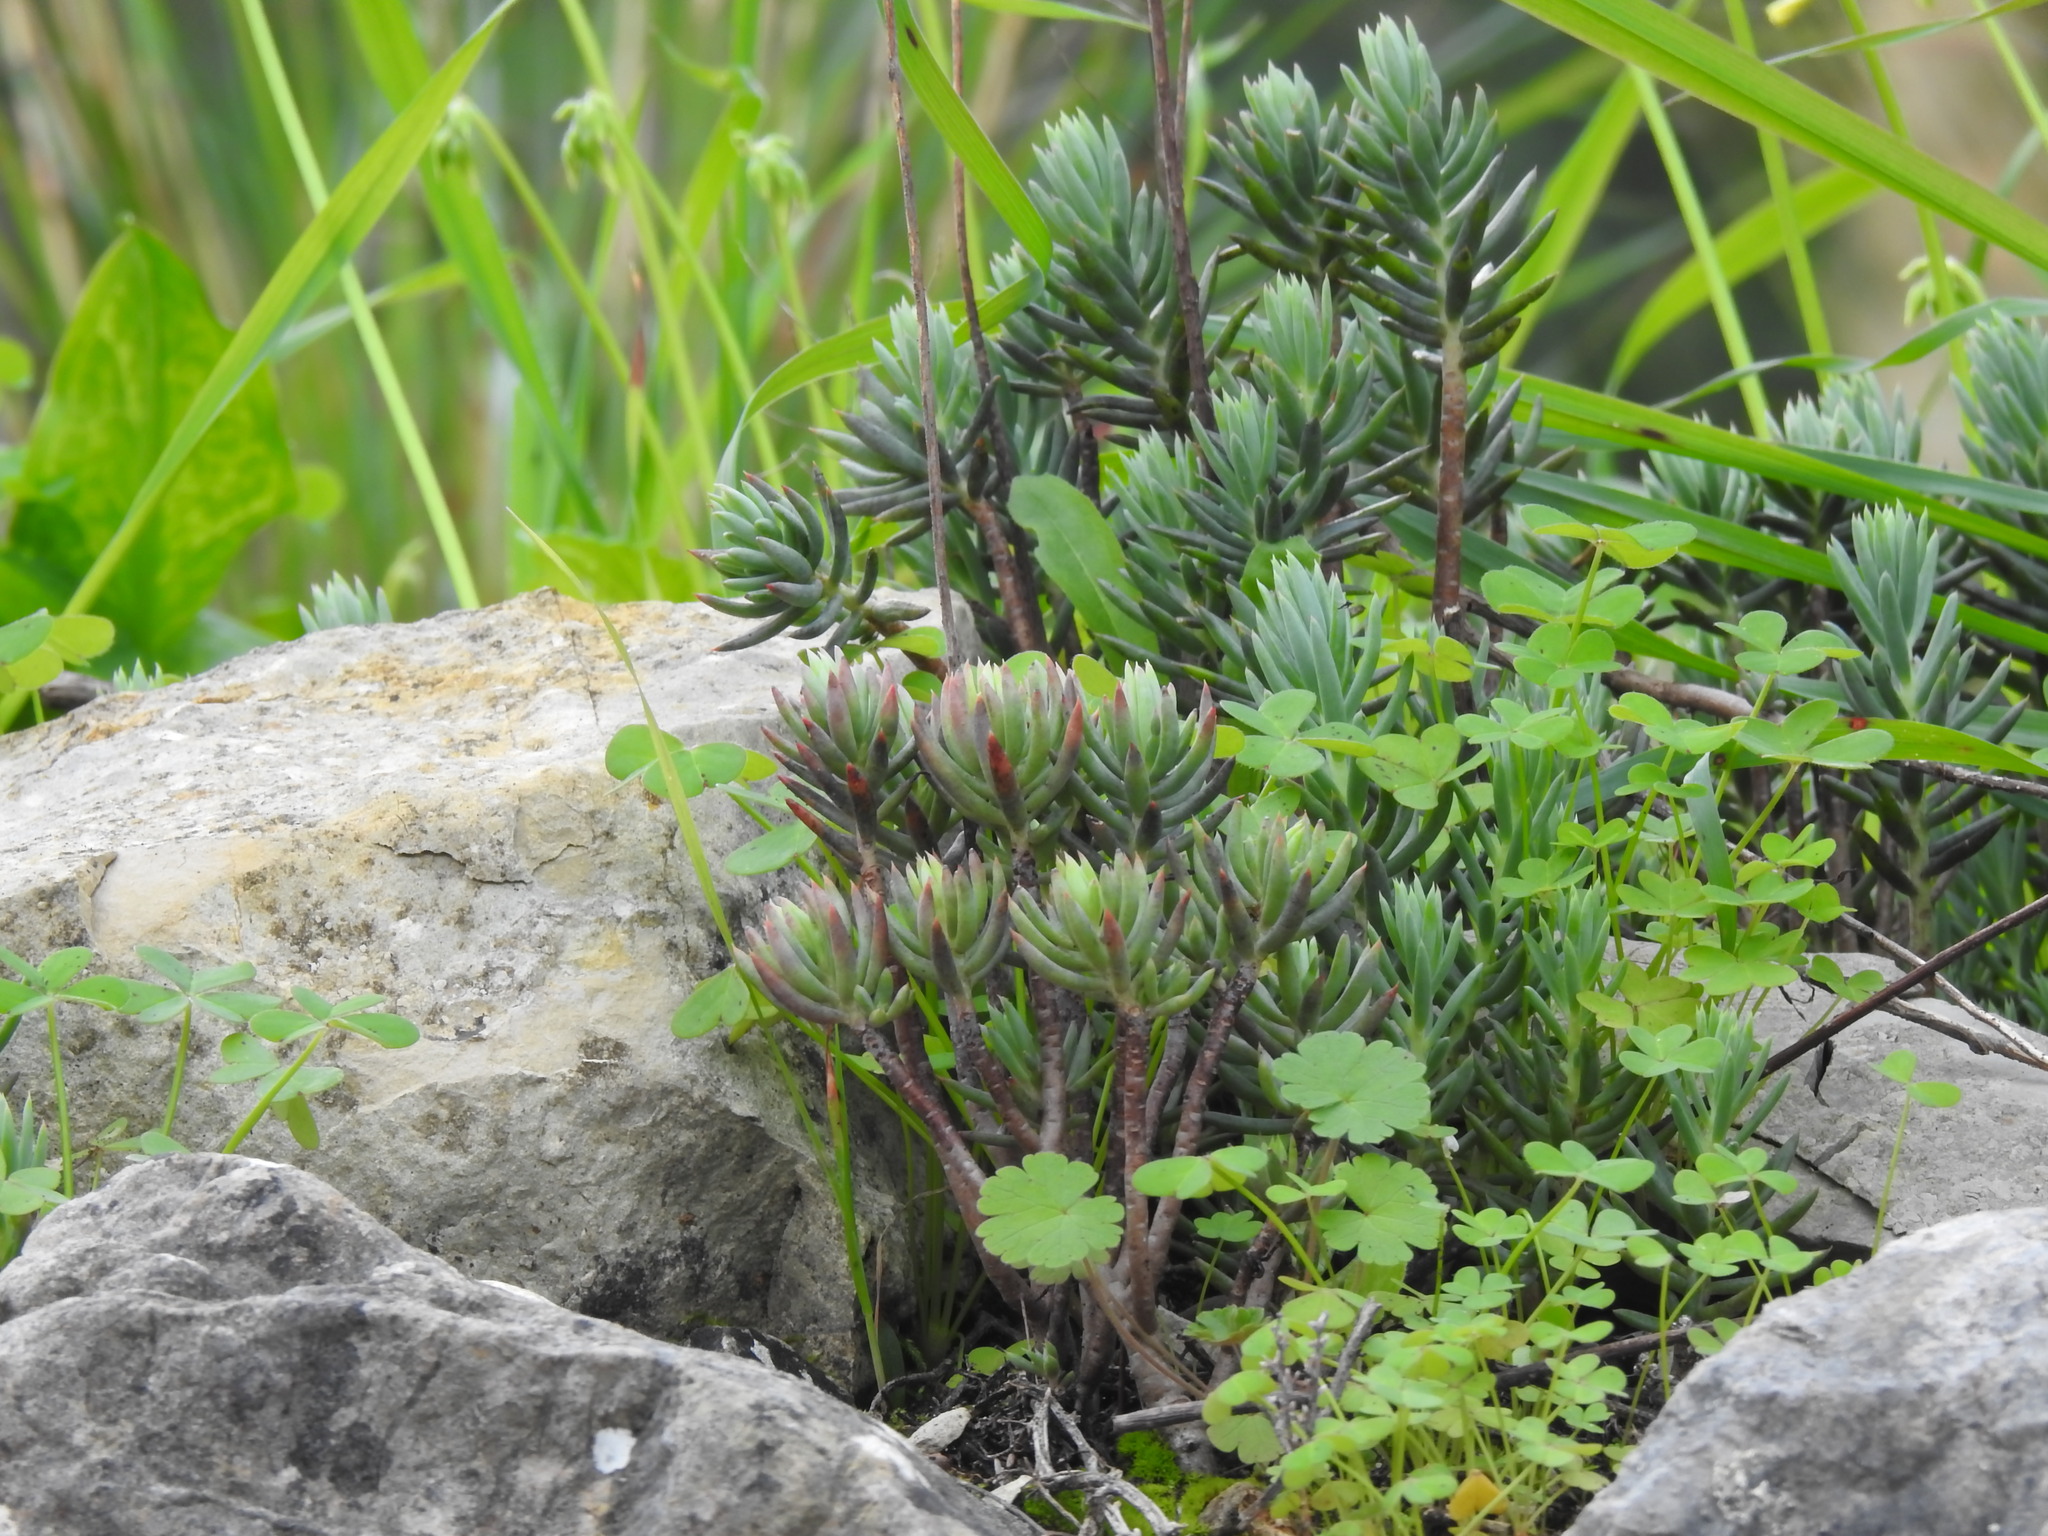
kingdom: Plantae
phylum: Tracheophyta
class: Magnoliopsida
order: Saxifragales
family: Crassulaceae
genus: Petrosedum
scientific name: Petrosedum sediforme
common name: Pale stonecrop
